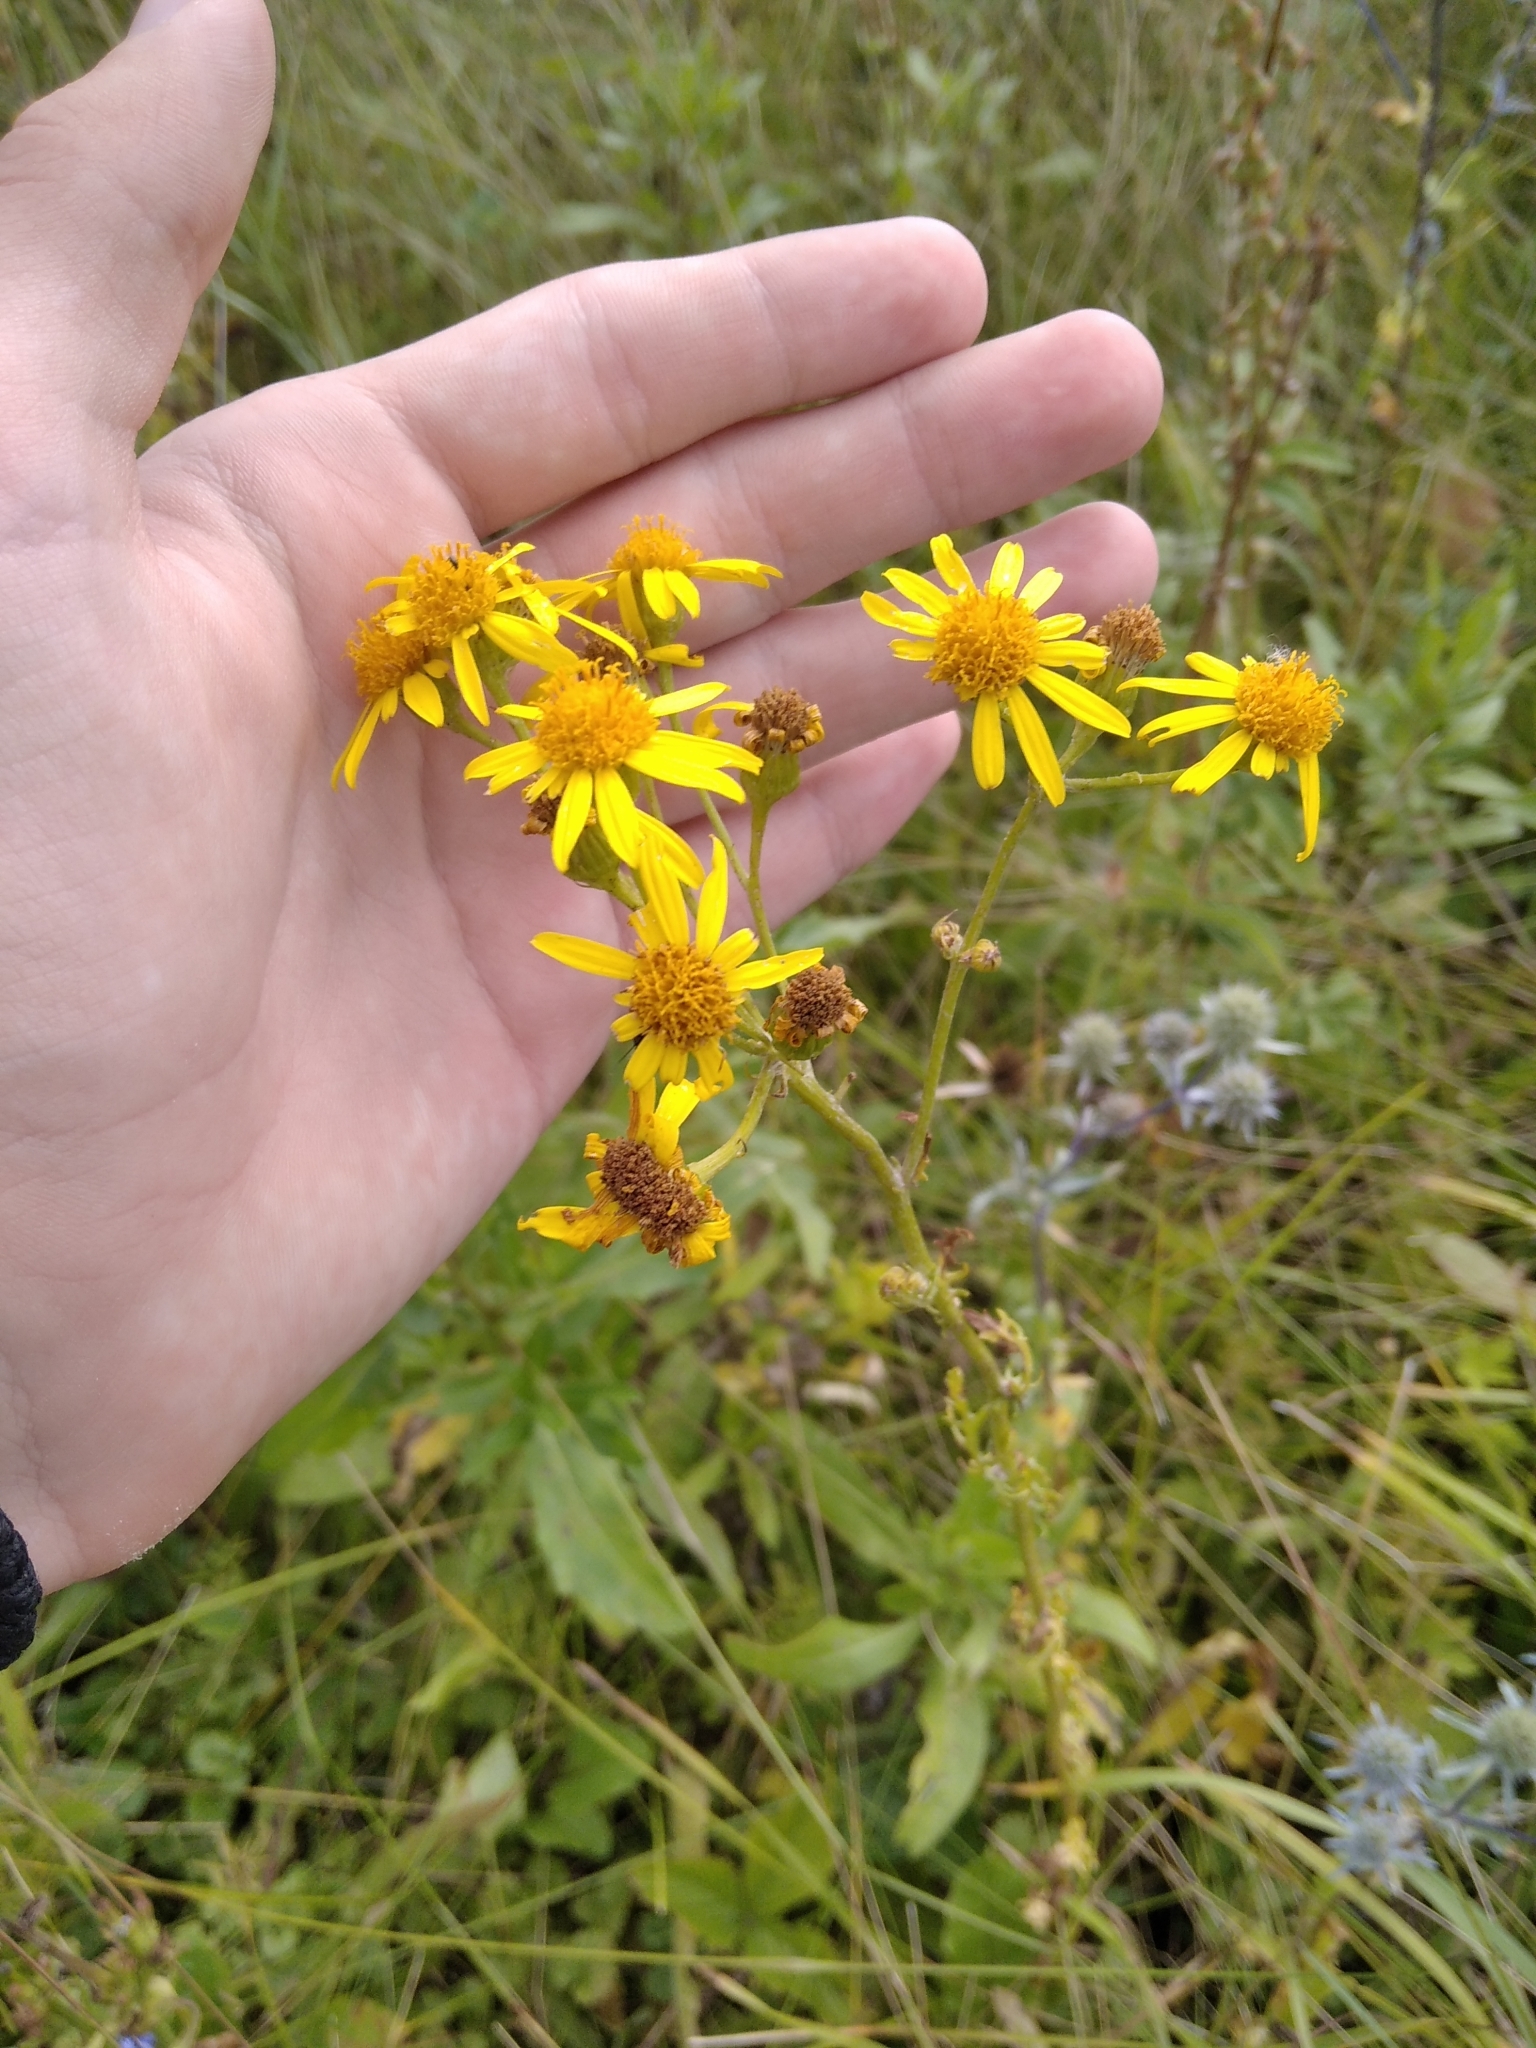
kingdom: Plantae
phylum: Tracheophyta
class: Magnoliopsida
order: Asterales
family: Asteraceae
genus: Jacobaea
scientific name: Jacobaea vulgaris
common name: Stinking willie
